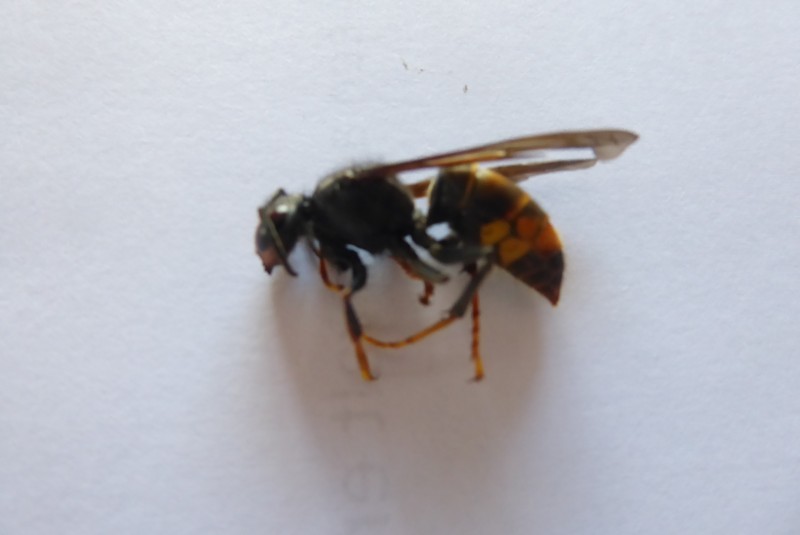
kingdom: Animalia
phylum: Arthropoda
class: Insecta
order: Hymenoptera
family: Vespidae
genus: Vespa
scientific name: Vespa velutina
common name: Asian hornet
